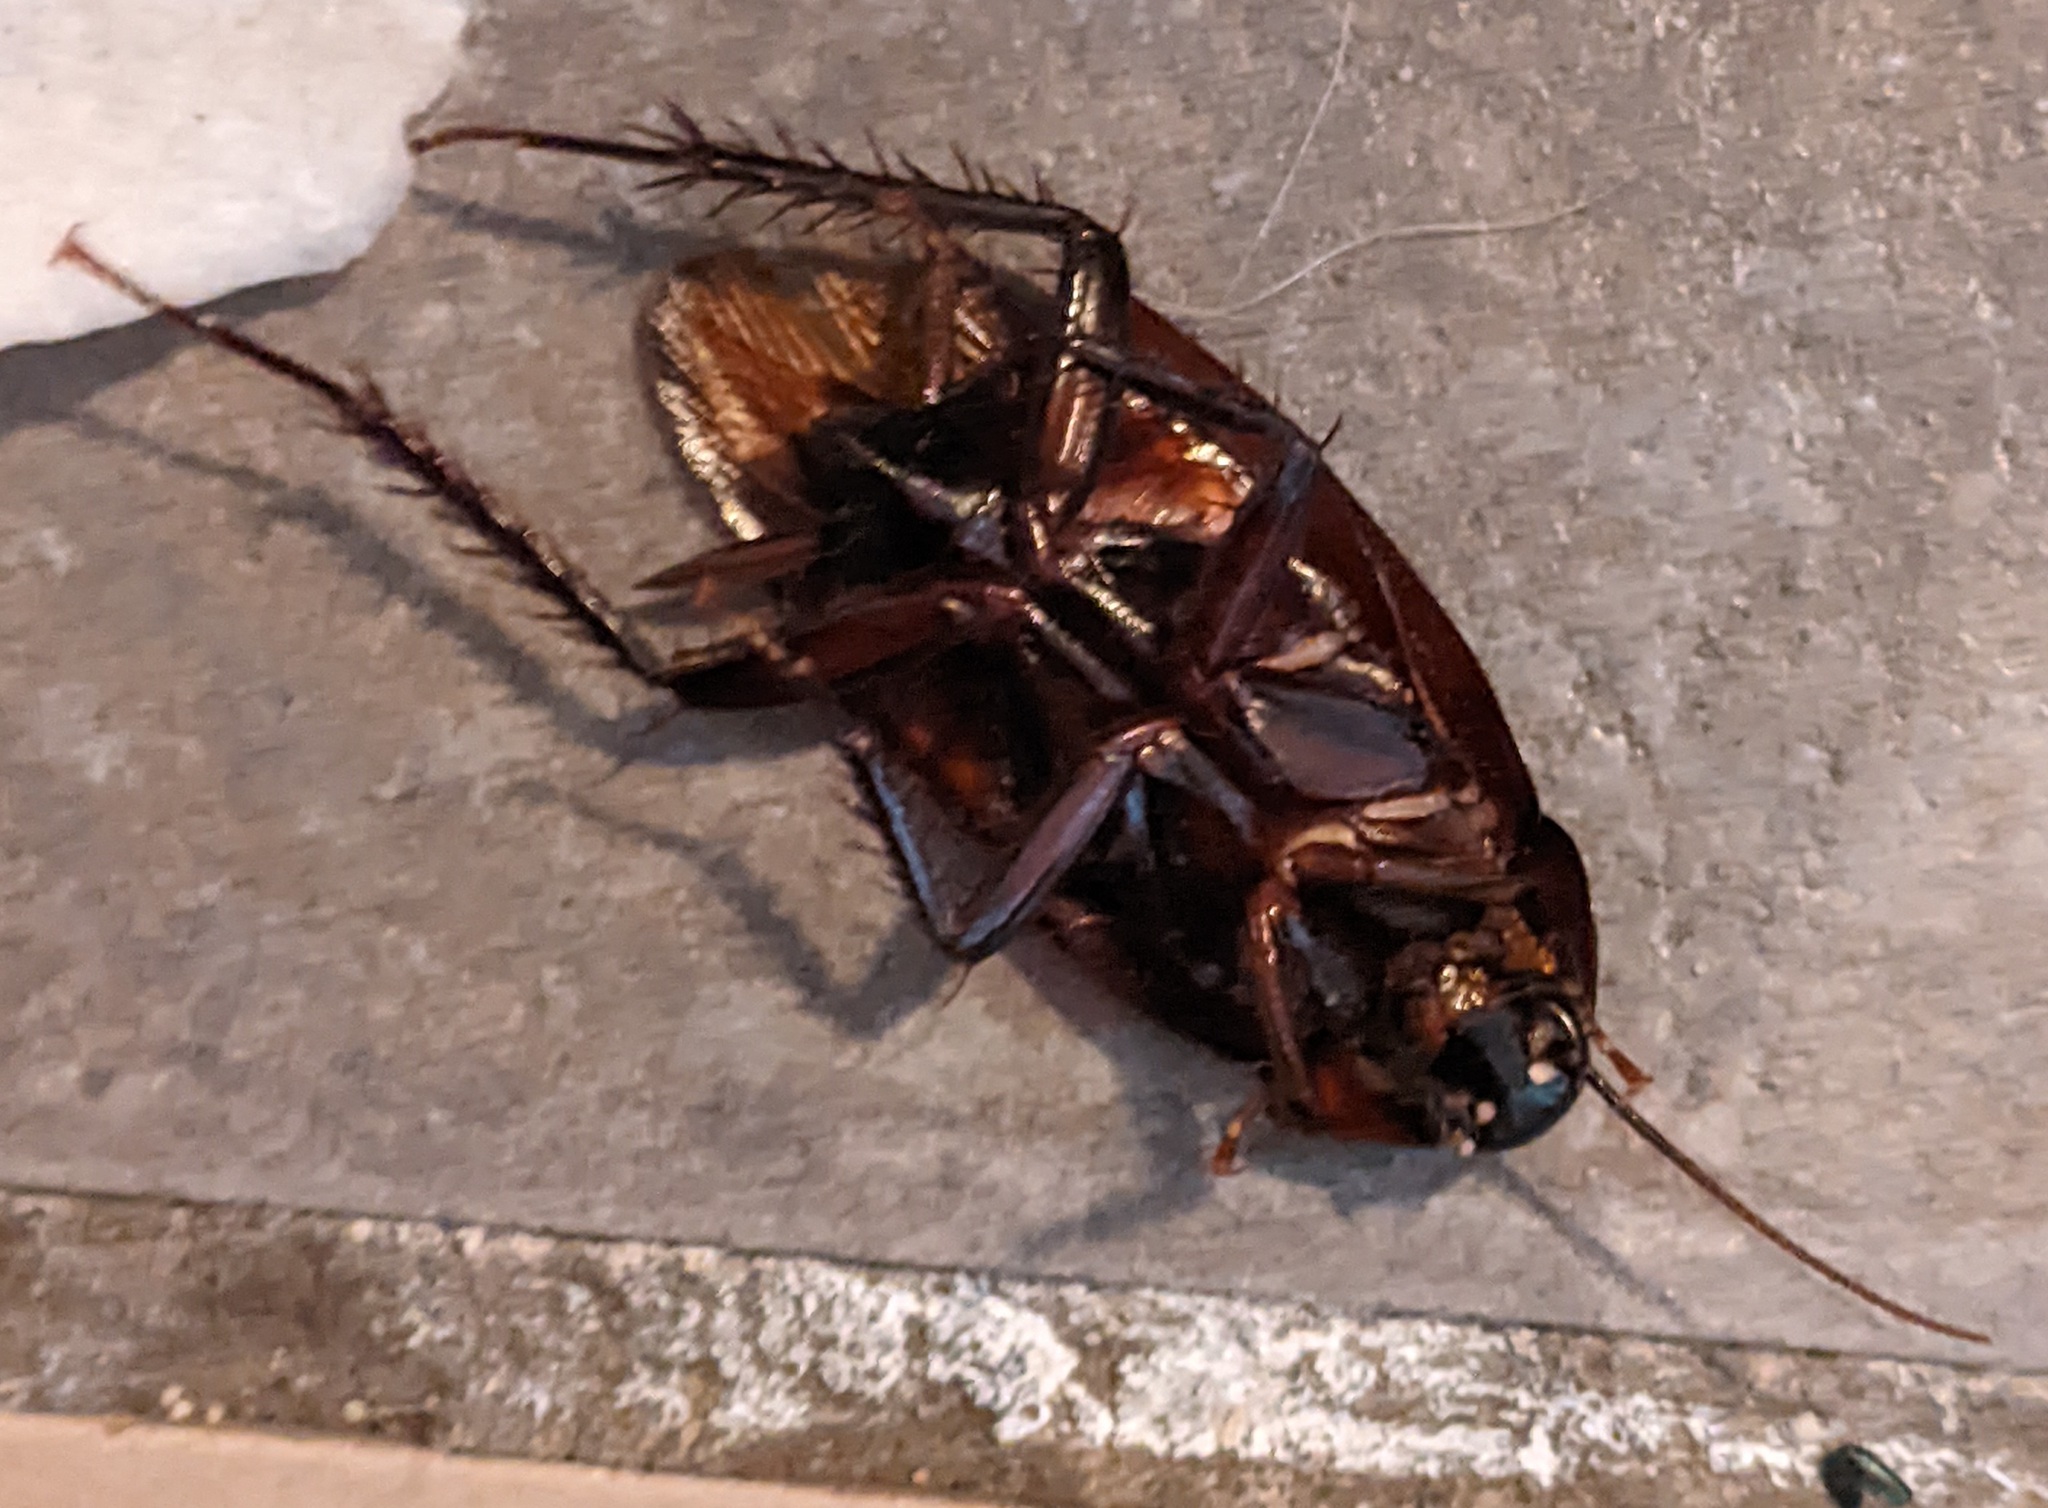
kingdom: Animalia
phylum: Arthropoda
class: Insecta
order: Blattodea
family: Blattidae
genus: Periplaneta
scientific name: Periplaneta fuliginosa
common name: Smokeybrown cockroad
